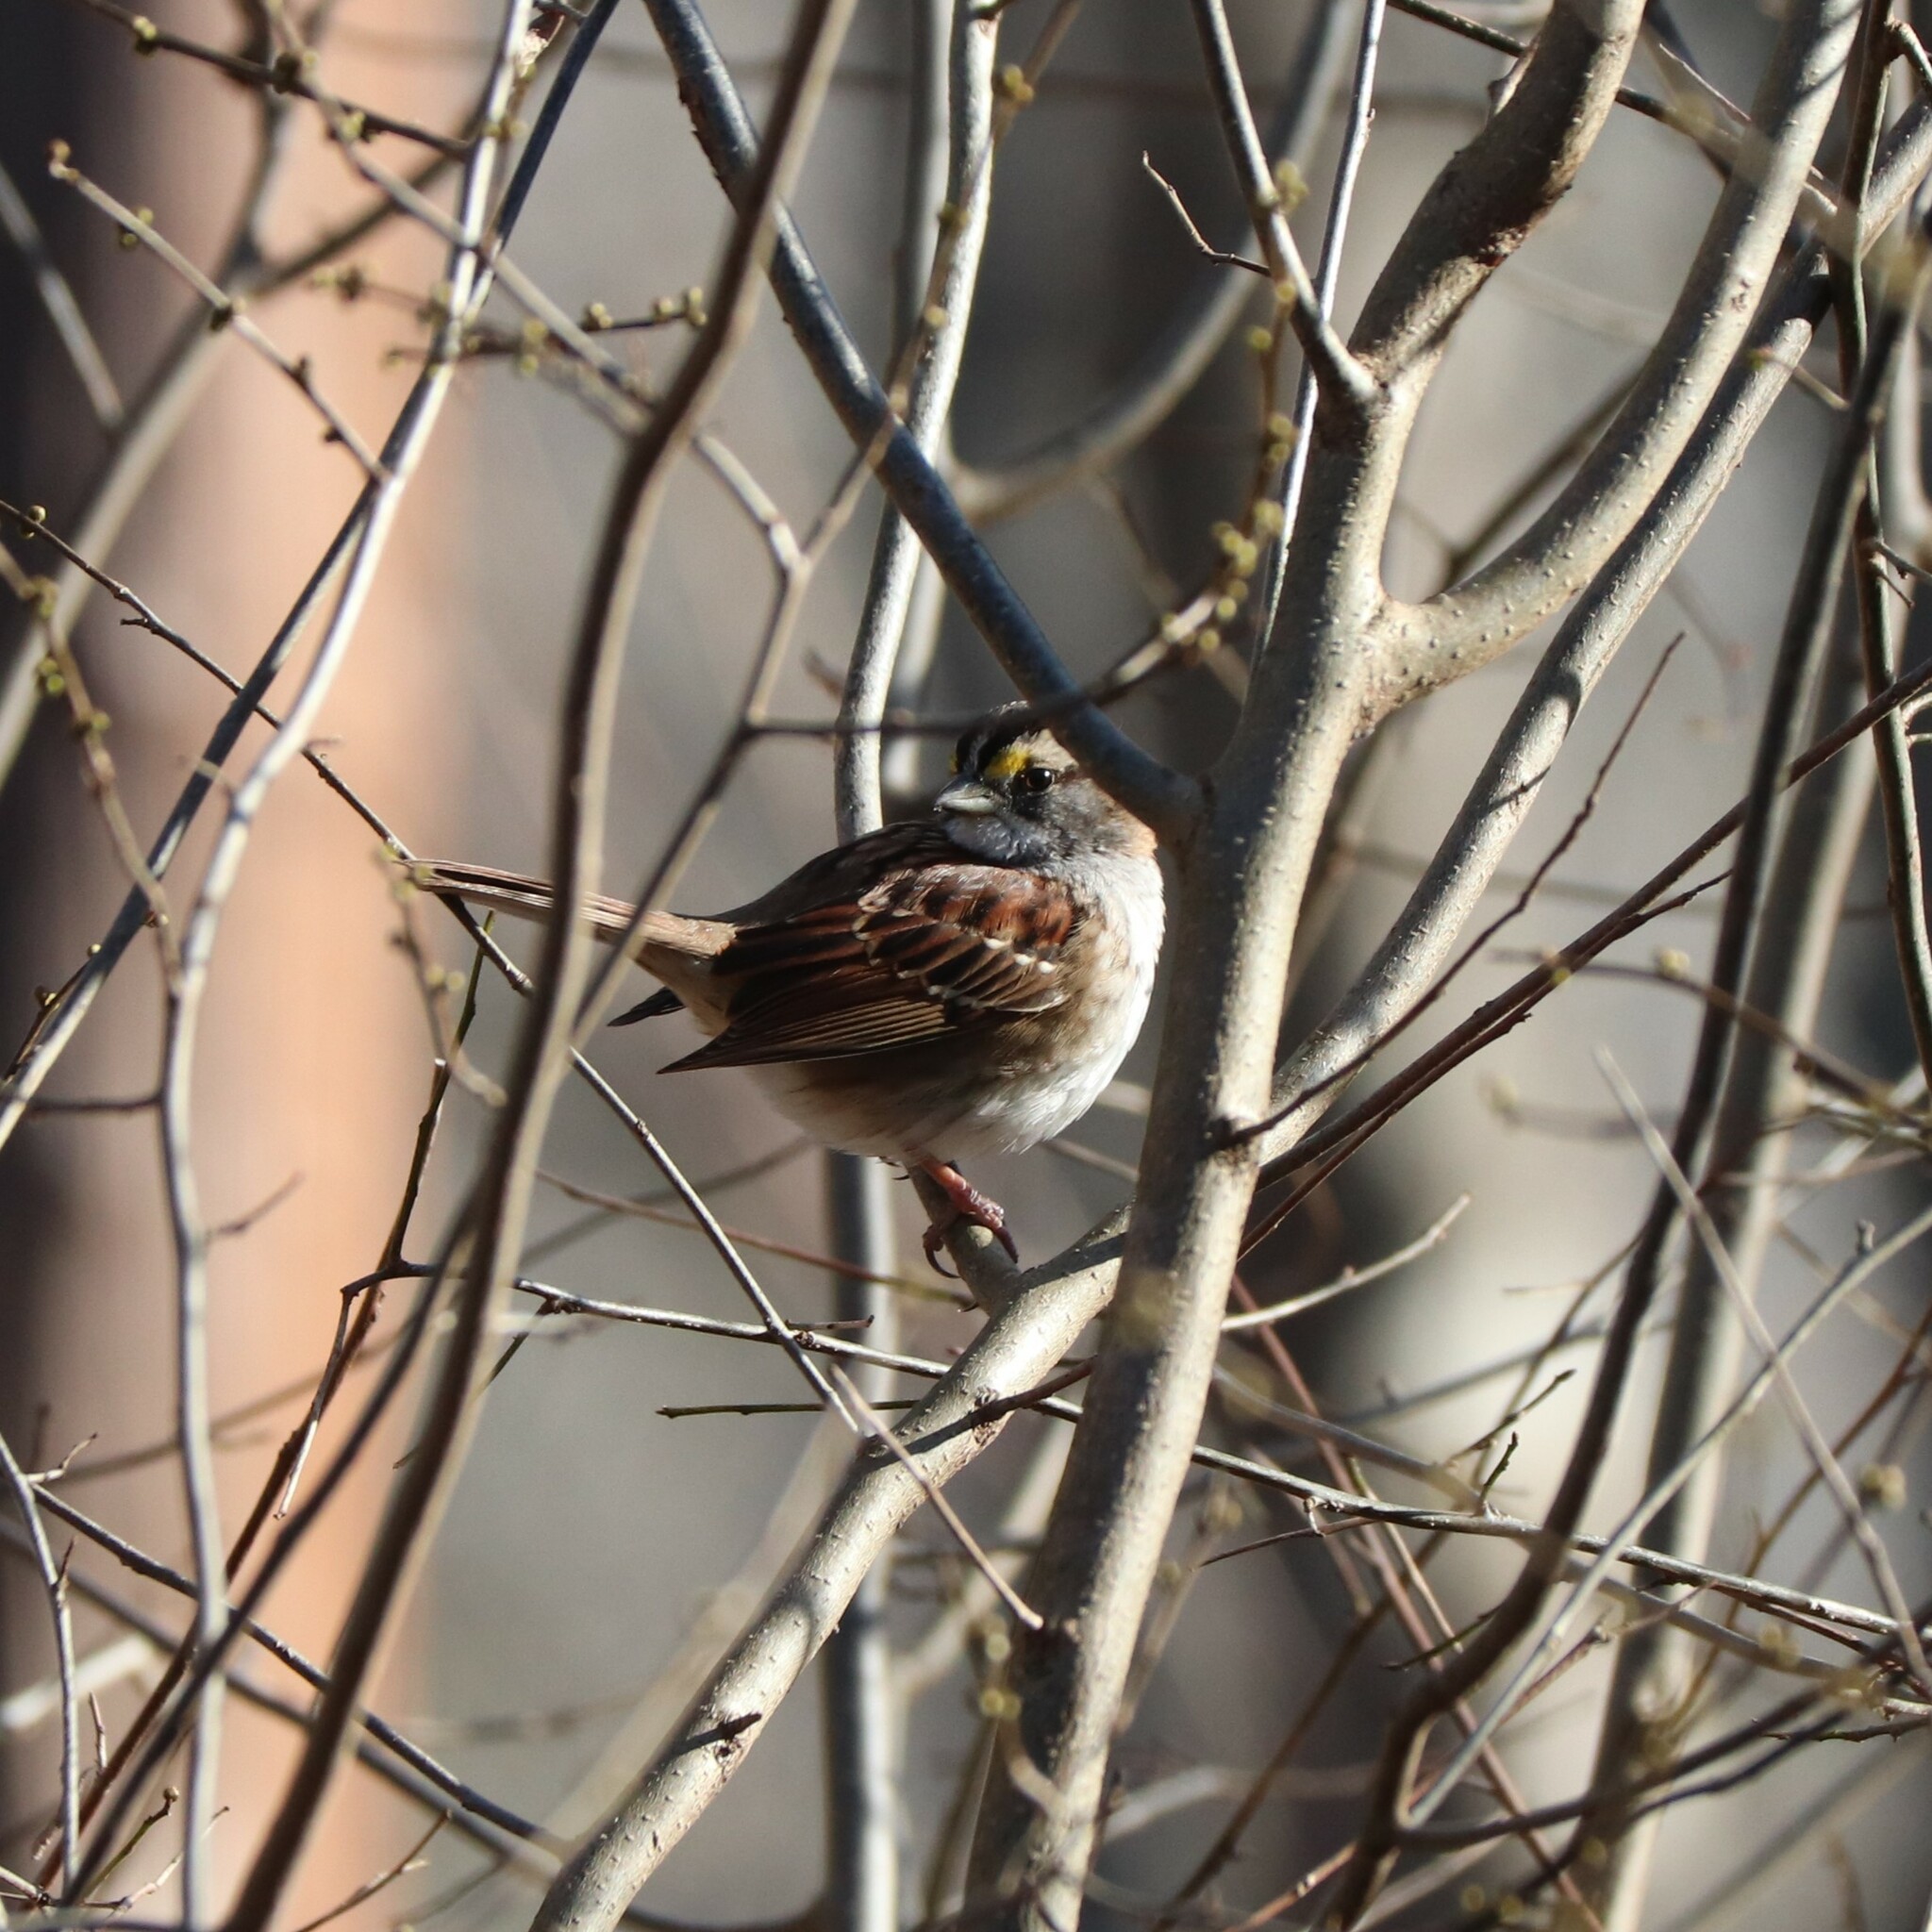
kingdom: Animalia
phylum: Chordata
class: Aves
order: Passeriformes
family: Passerellidae
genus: Zonotrichia
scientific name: Zonotrichia albicollis
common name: White-throated sparrow
